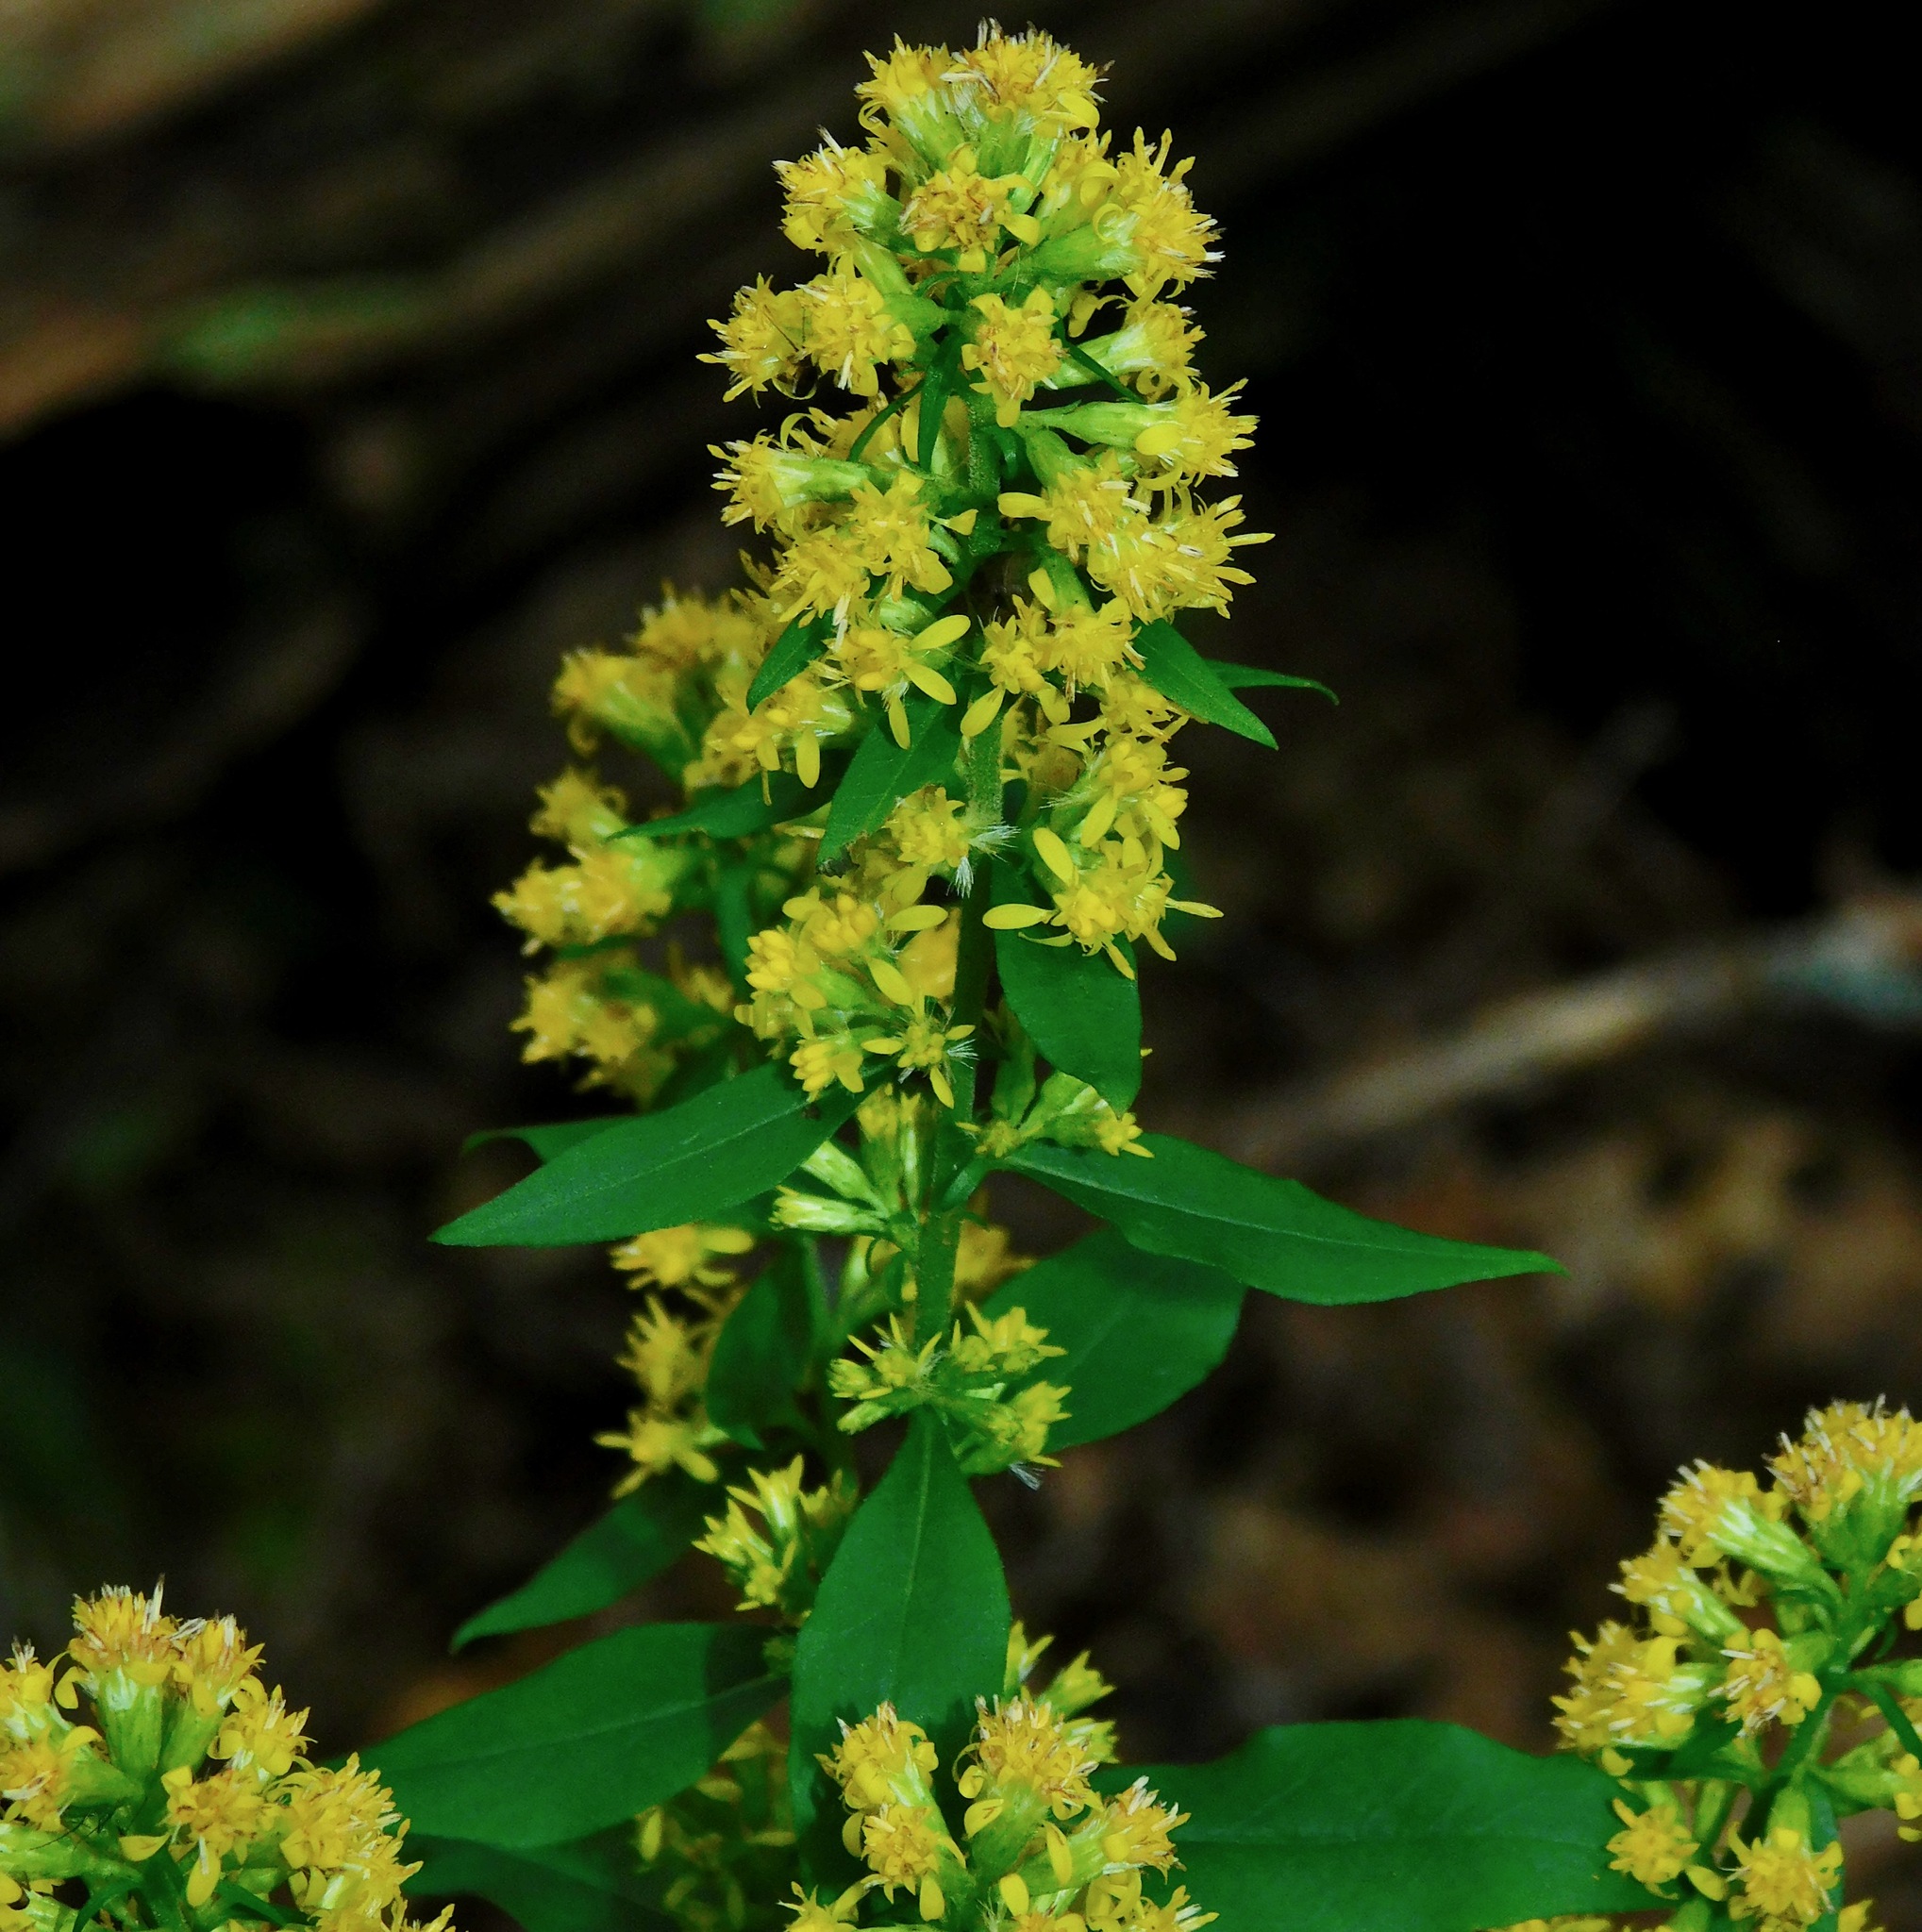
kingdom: Plantae
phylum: Tracheophyta
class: Magnoliopsida
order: Asterales
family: Asteraceae
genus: Solidago
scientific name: Solidago curtisii
